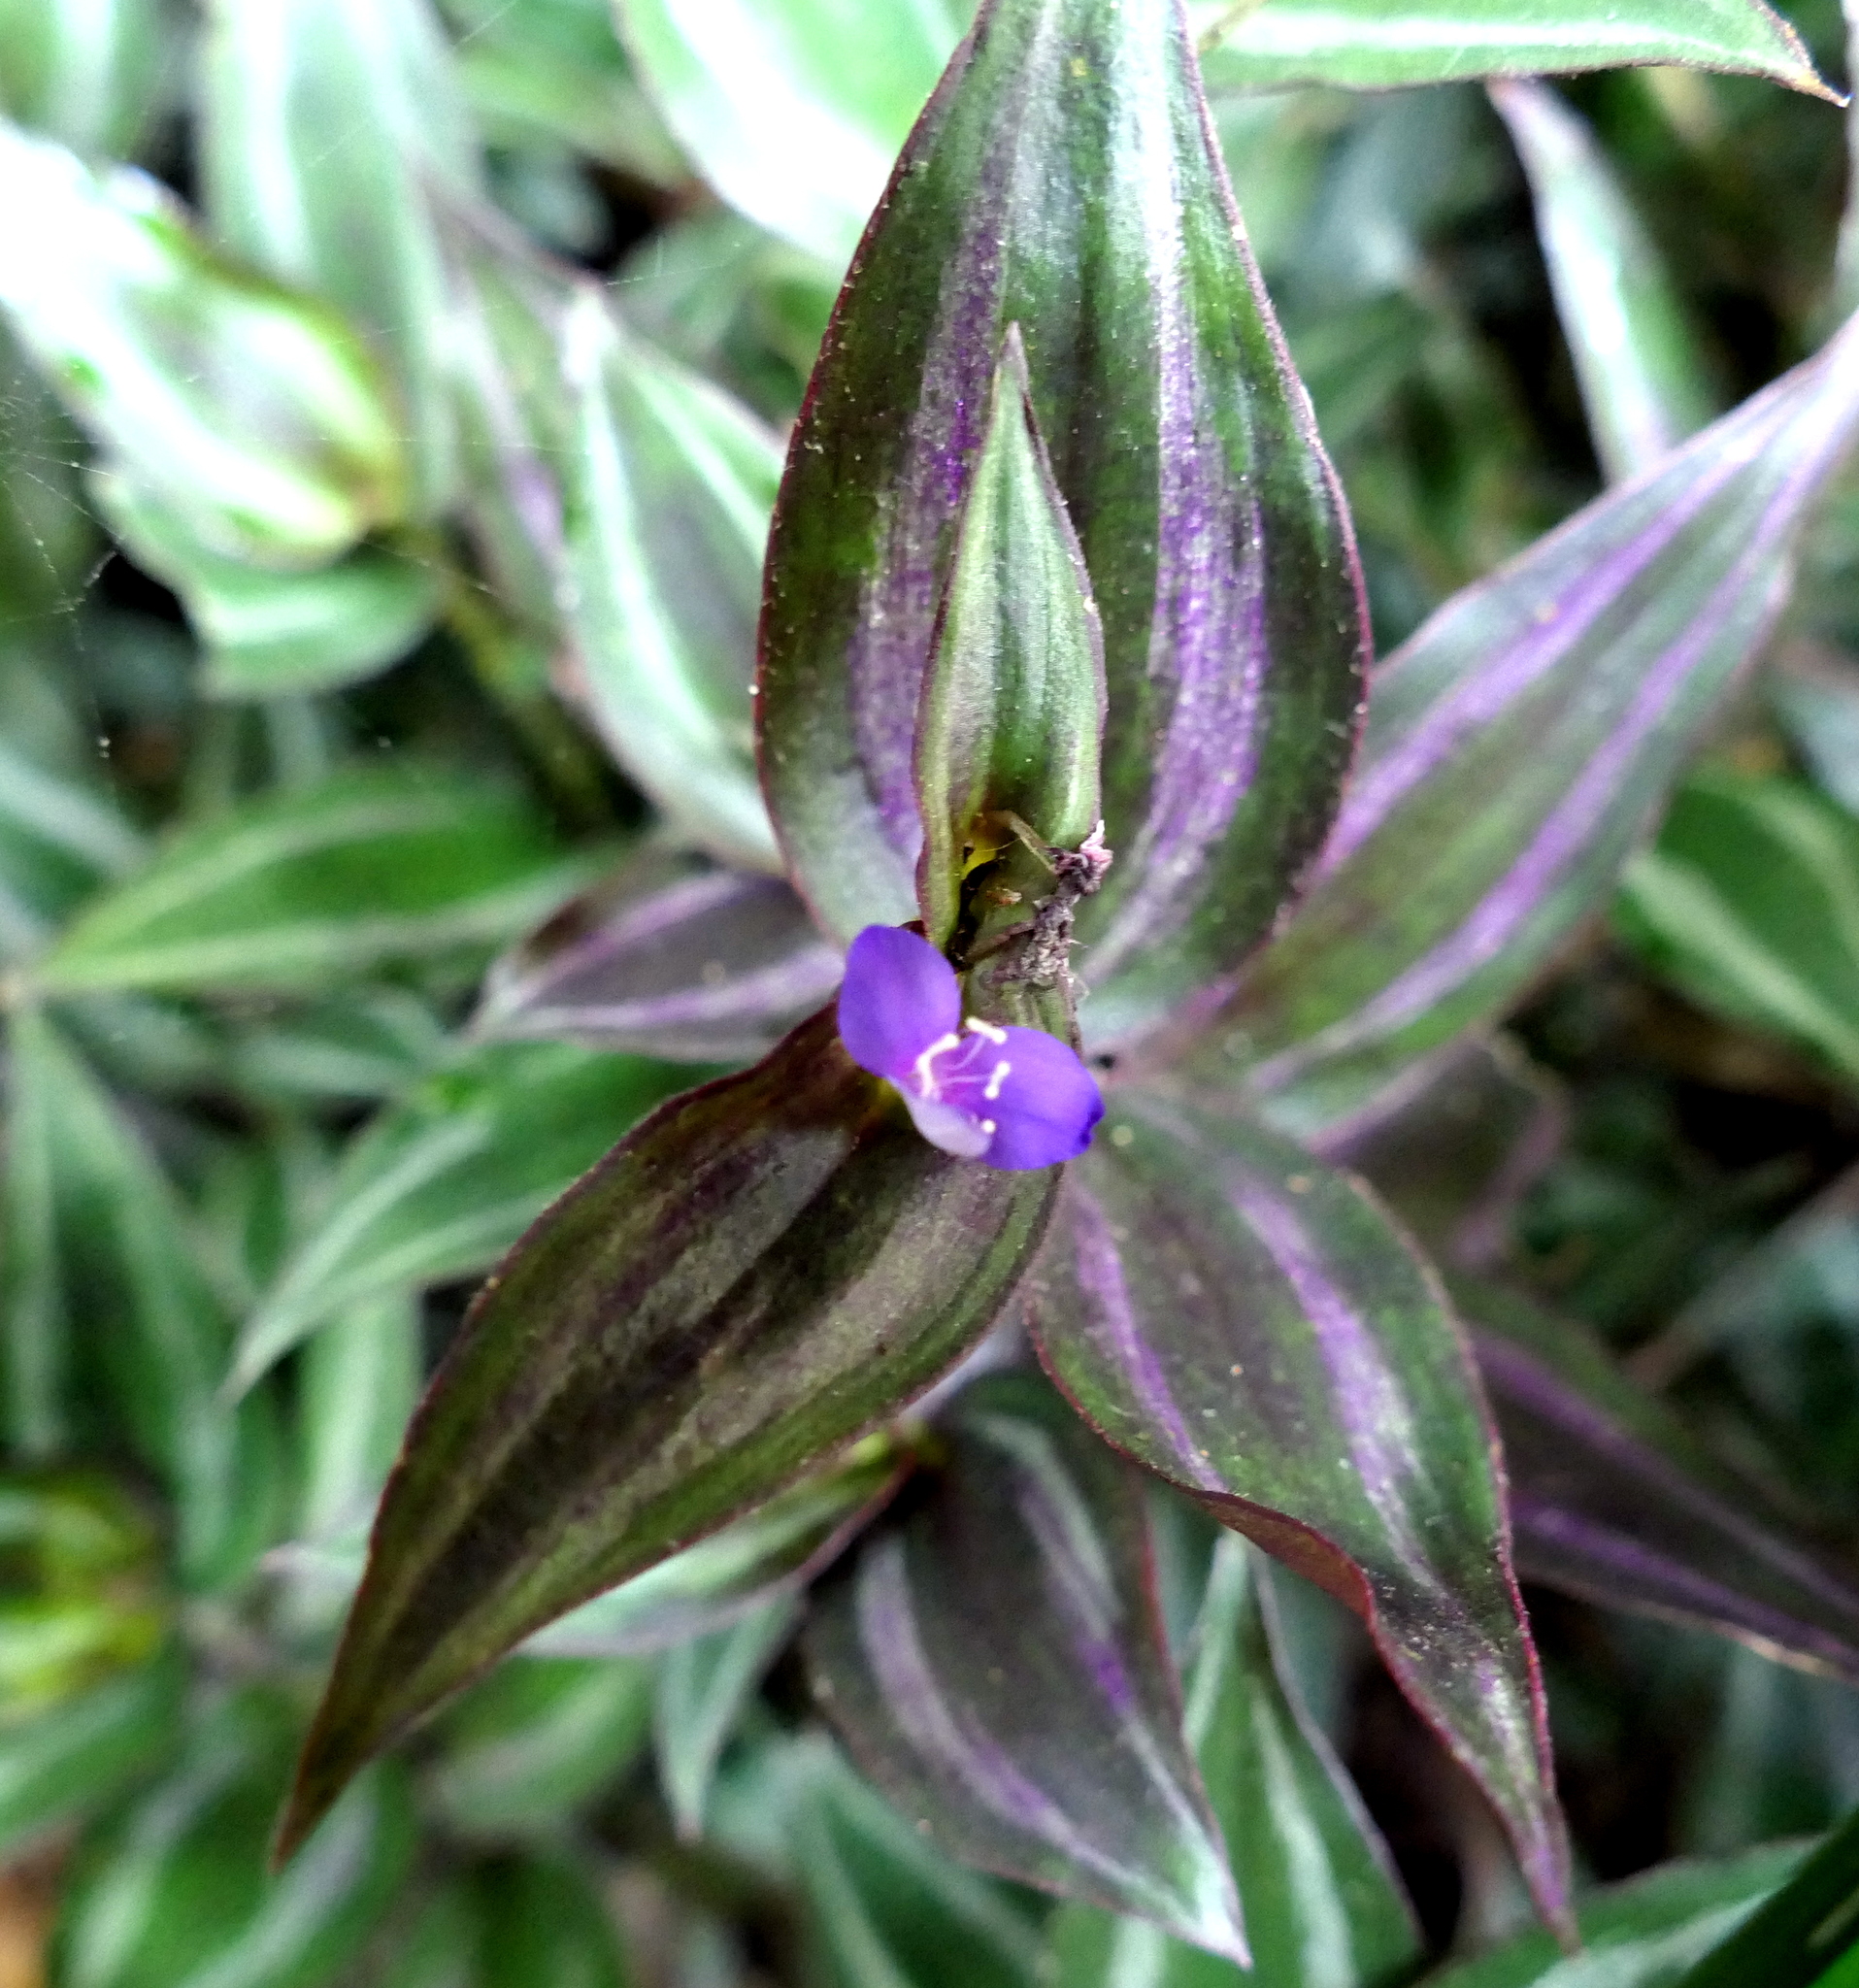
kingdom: Plantae
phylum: Tracheophyta
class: Liliopsida
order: Commelinales
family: Commelinaceae
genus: Tradescantia
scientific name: Tradescantia zebrina
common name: Inchplant
